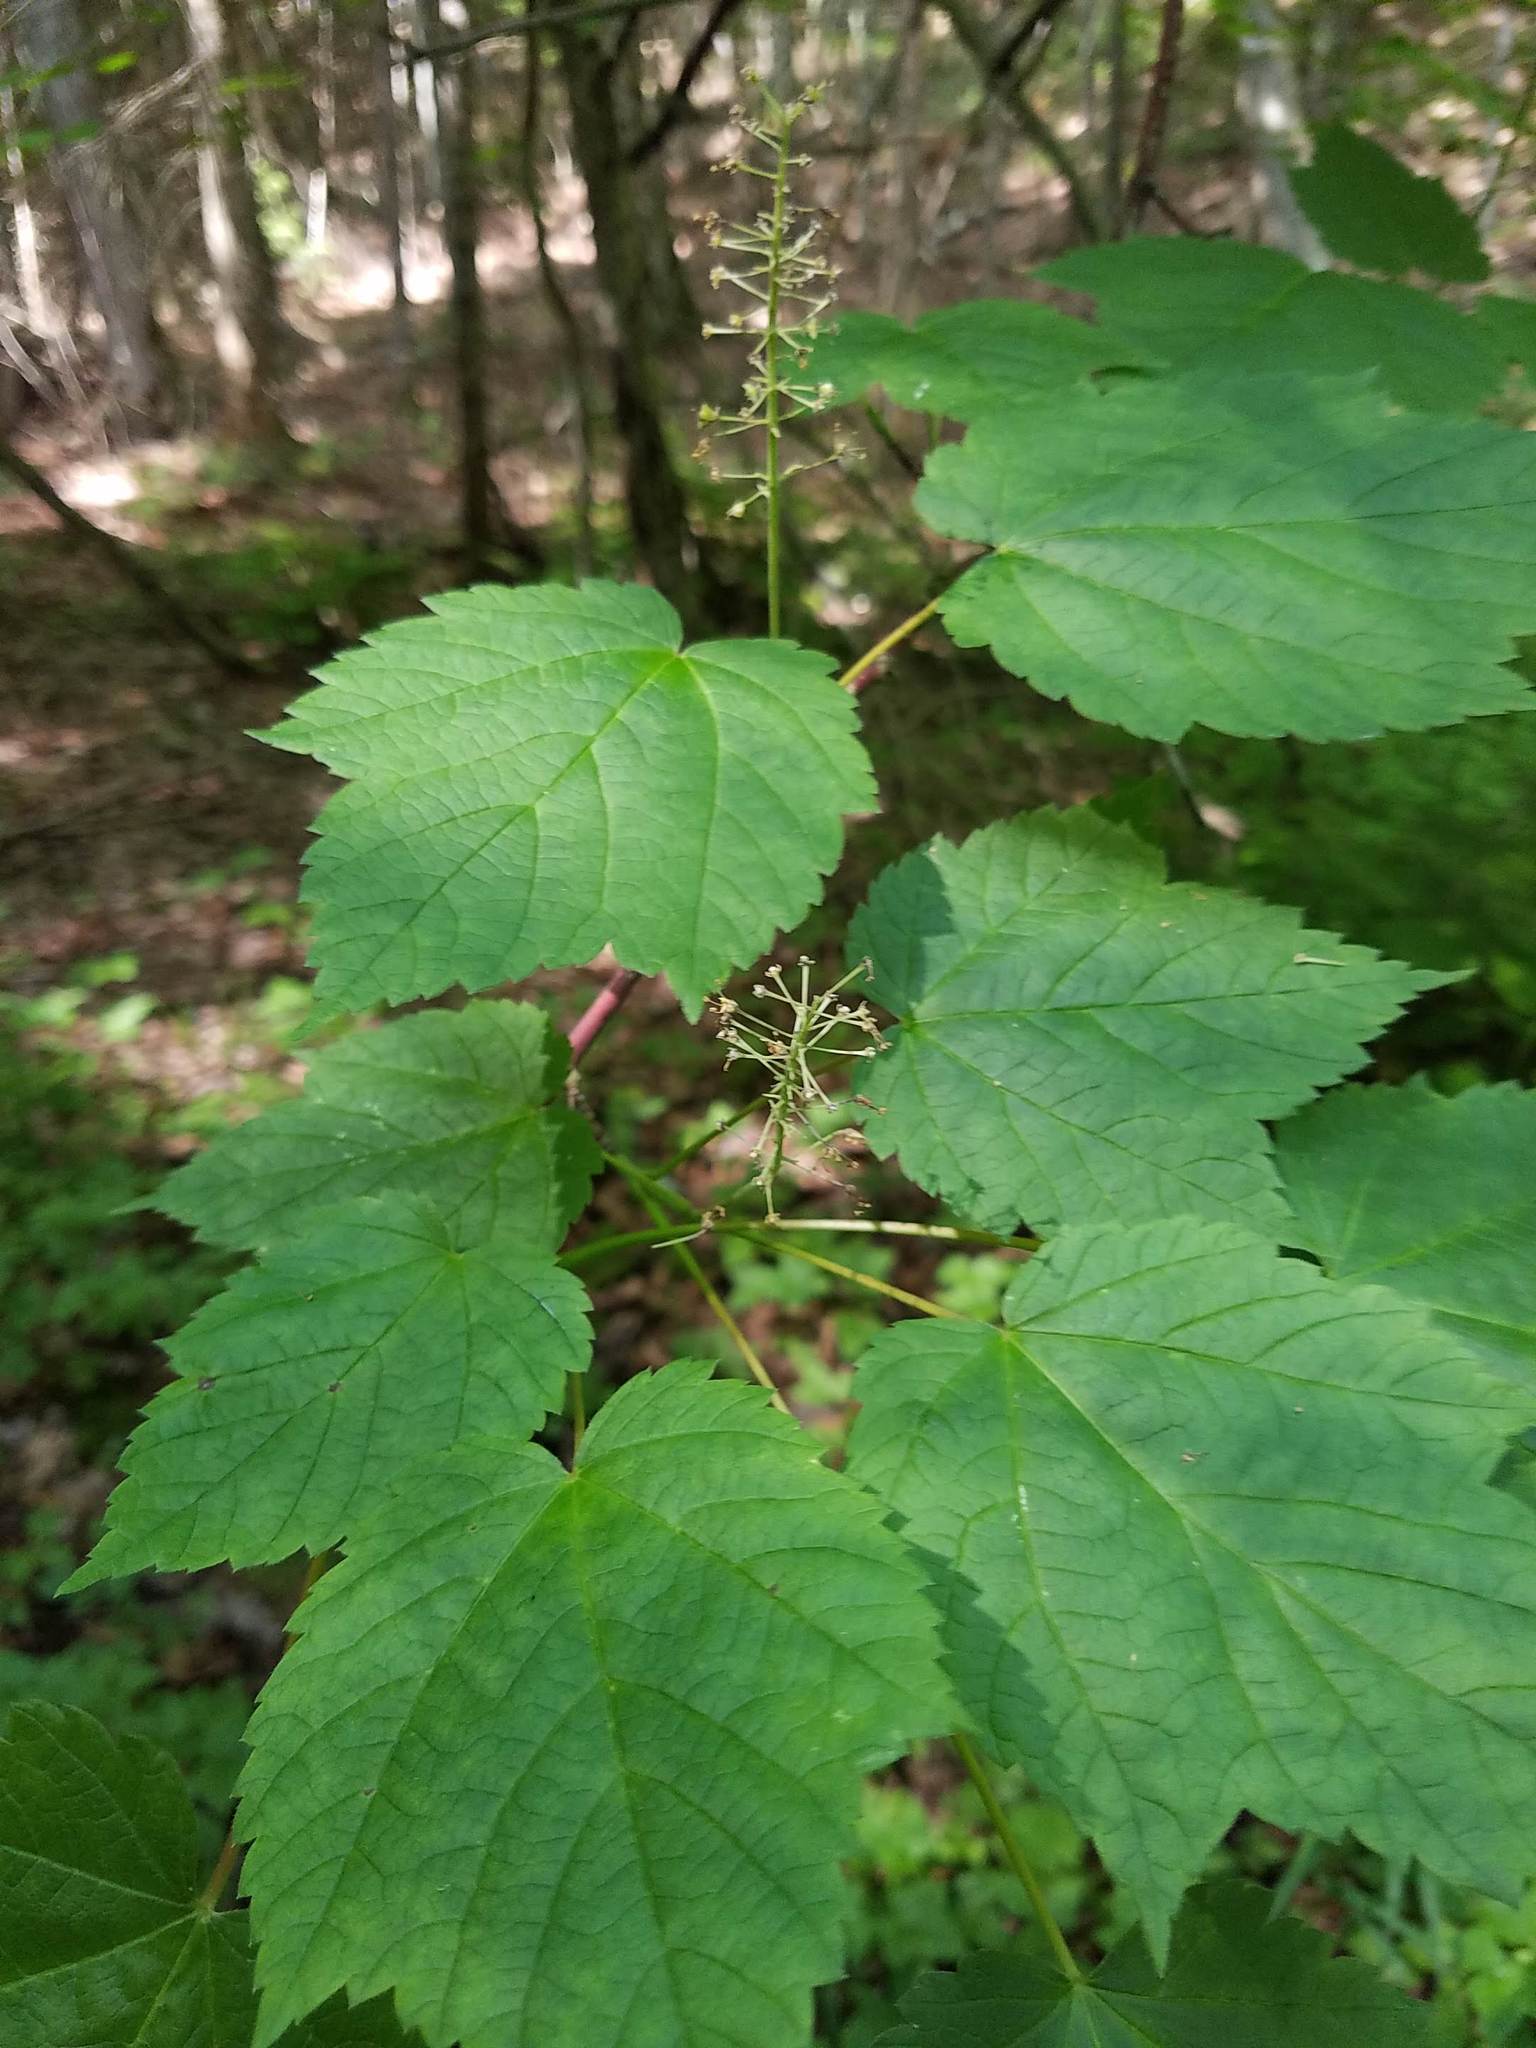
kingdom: Plantae
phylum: Tracheophyta
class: Magnoliopsida
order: Sapindales
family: Sapindaceae
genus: Acer
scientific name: Acer spicatum
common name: Mountain maple
